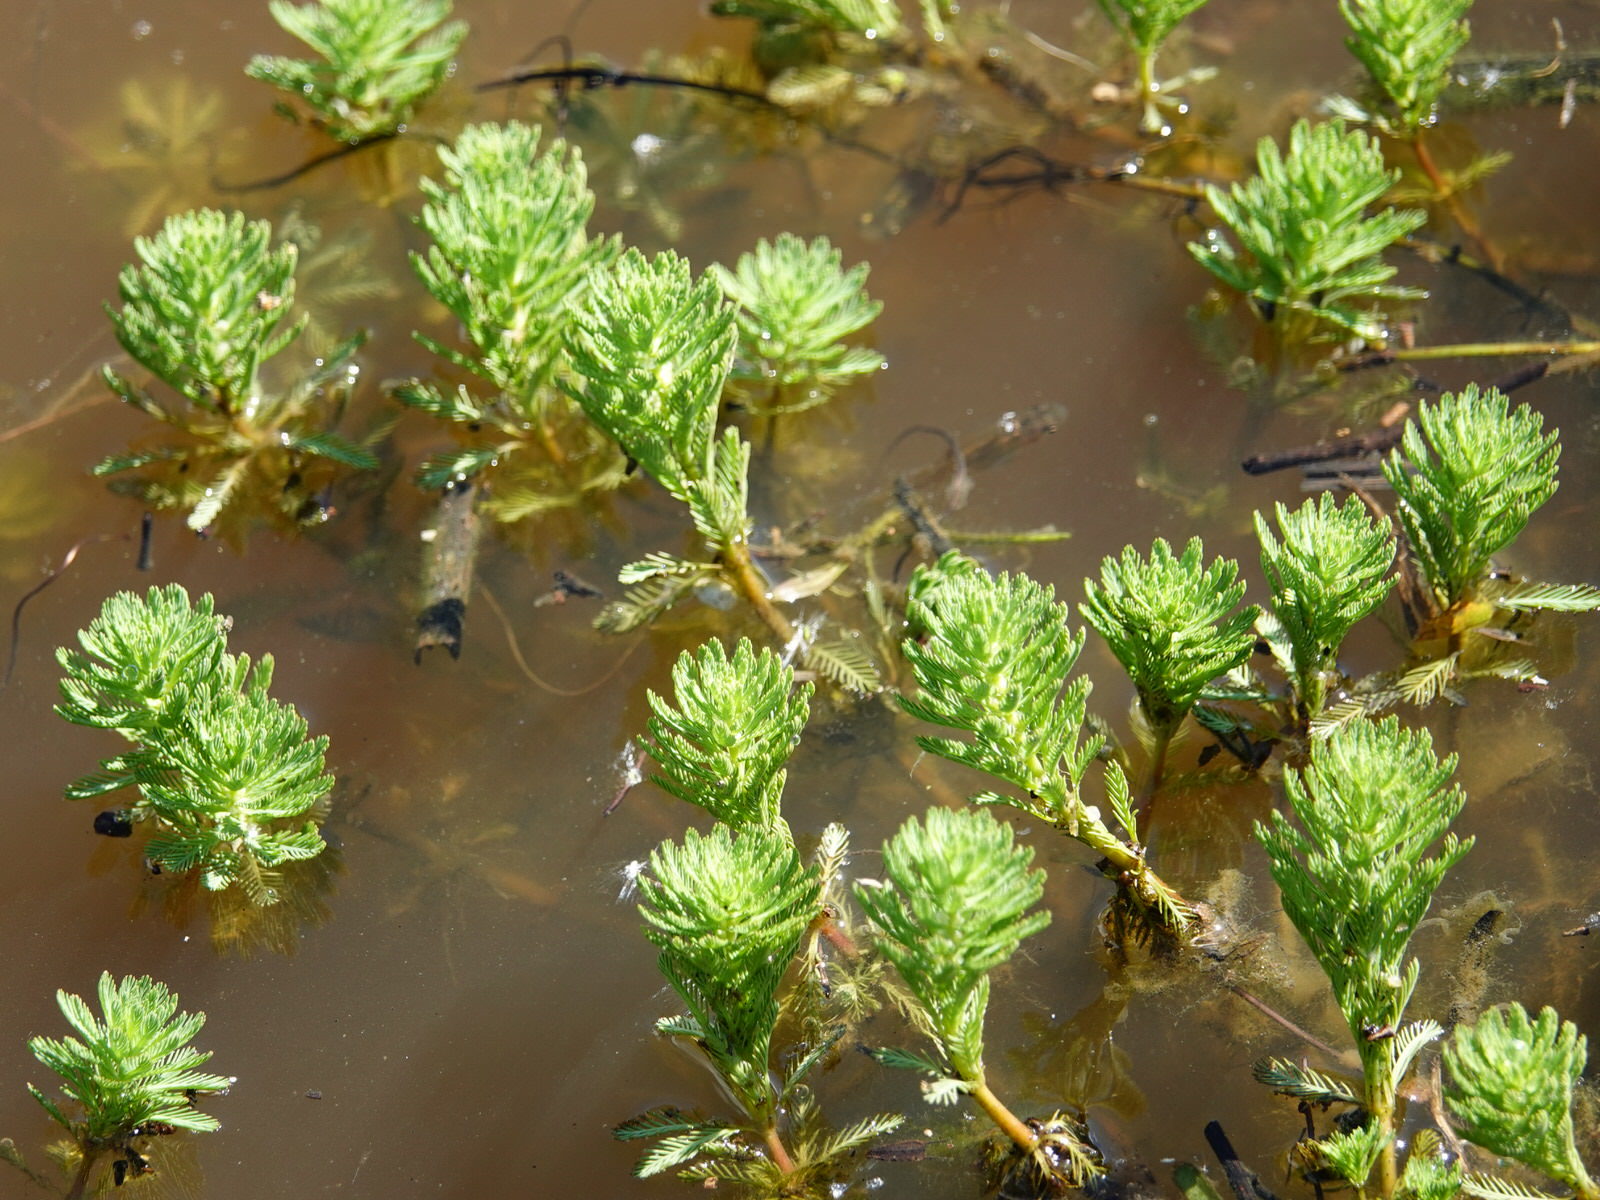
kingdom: Plantae
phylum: Tracheophyta
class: Magnoliopsida
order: Saxifragales
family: Haloragaceae
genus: Myriophyllum
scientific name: Myriophyllum aquaticum
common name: Parrot's feather
